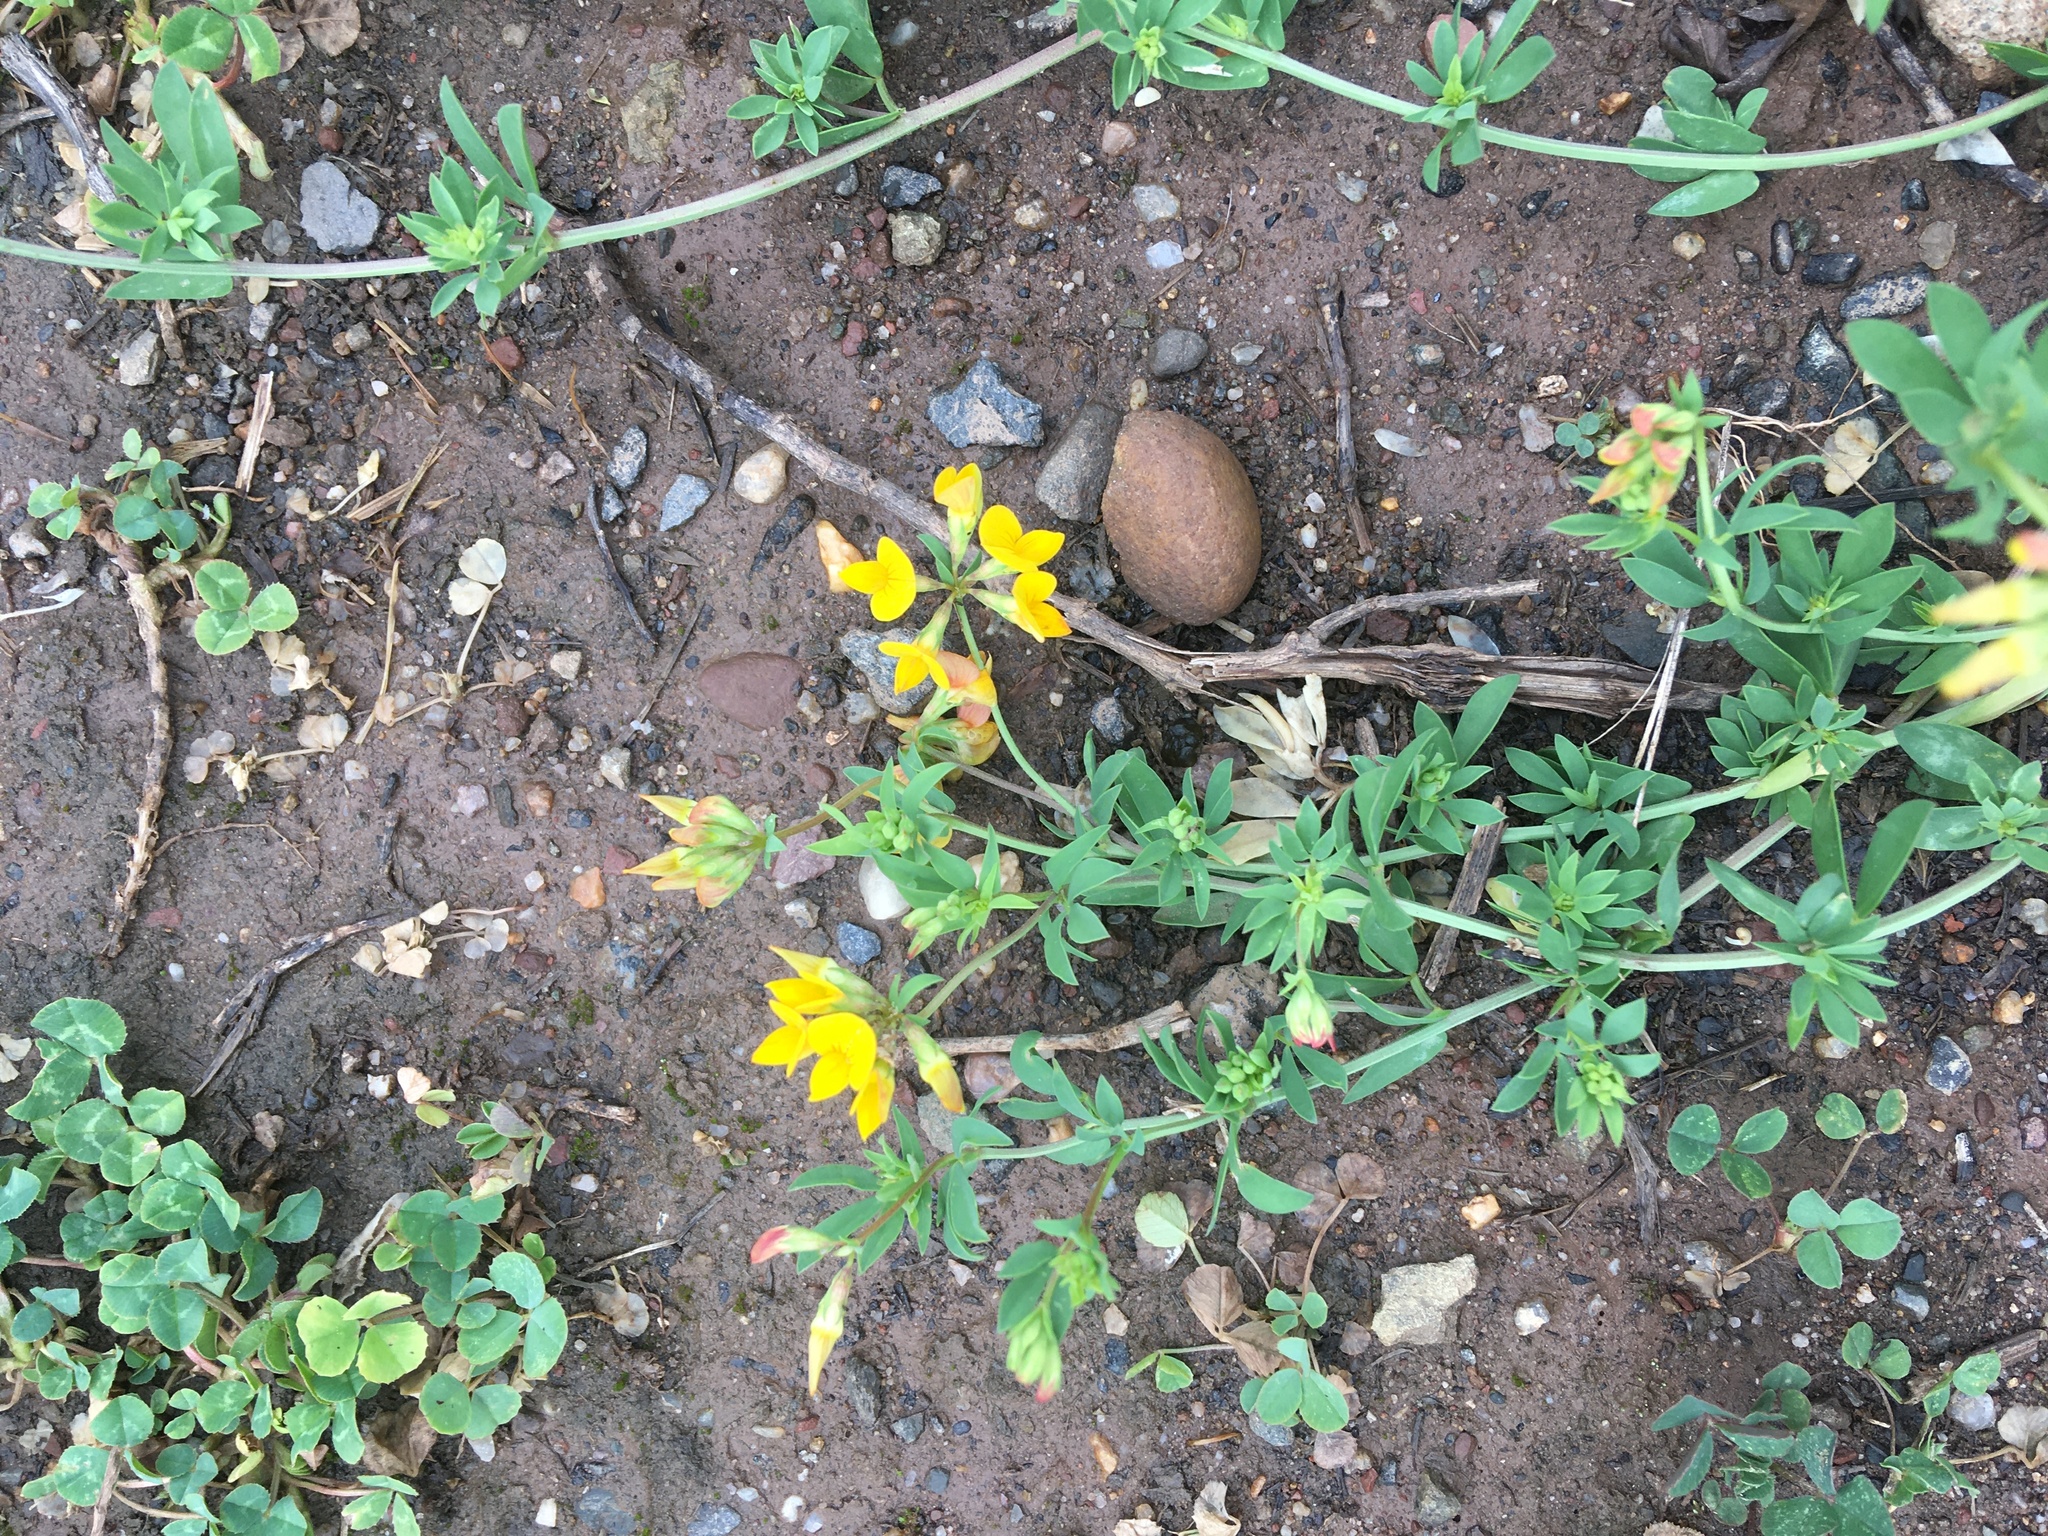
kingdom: Plantae
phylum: Tracheophyta
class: Magnoliopsida
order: Fabales
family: Fabaceae
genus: Lotus
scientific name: Lotus corniculatus
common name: Common bird's-foot-trefoil
